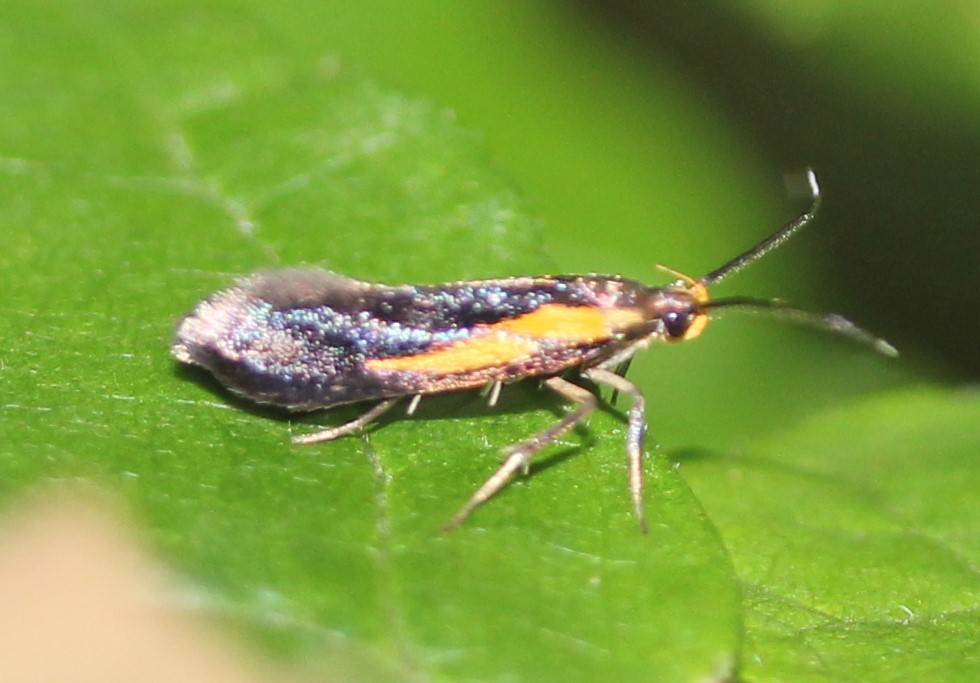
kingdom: Animalia
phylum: Arthropoda
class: Insecta
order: Lepidoptera
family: Oecophoridae
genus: Mathildana
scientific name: Mathildana newmanella
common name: Newman's mathildana moth
